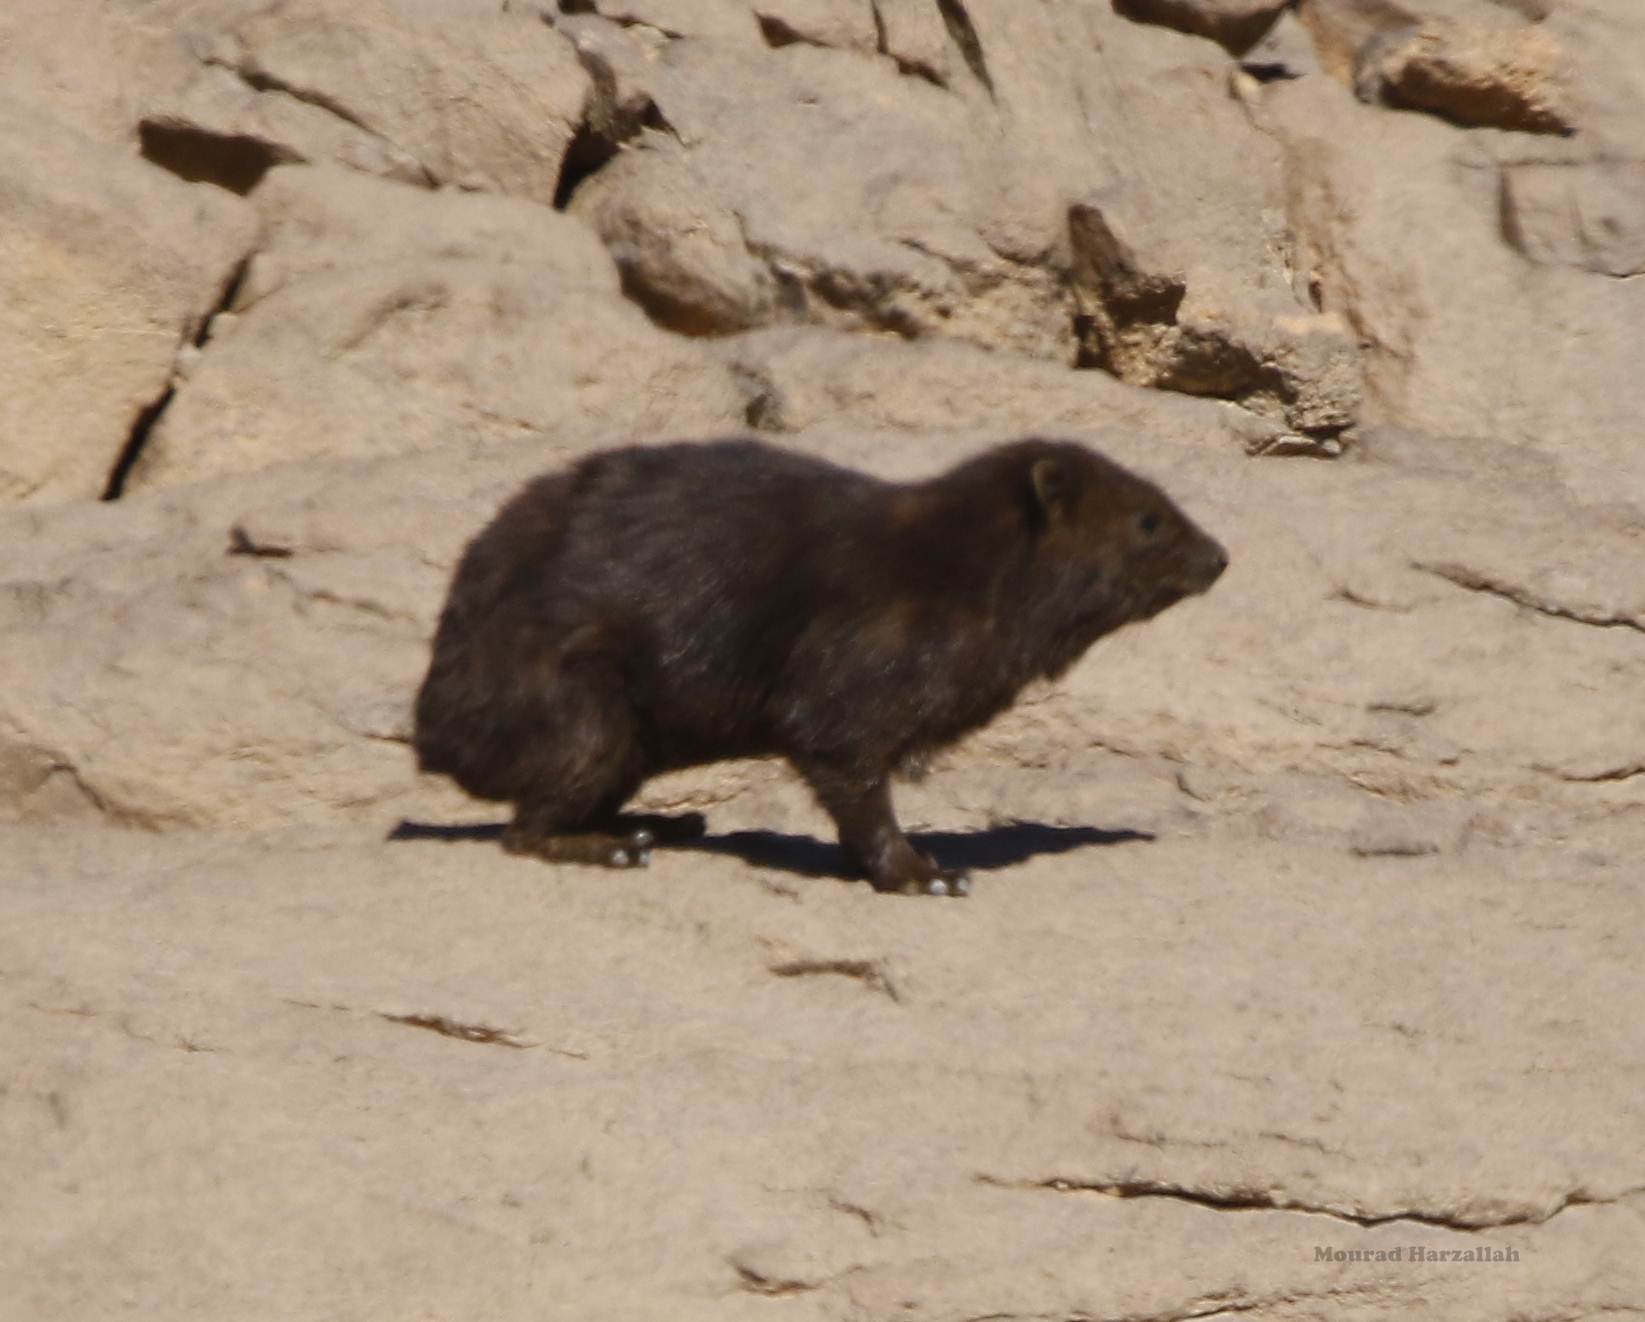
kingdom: Animalia
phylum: Chordata
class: Mammalia
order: Hyracoidea
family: Procaviidae
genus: Procavia
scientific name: Procavia capensis
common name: Rock hyrax
